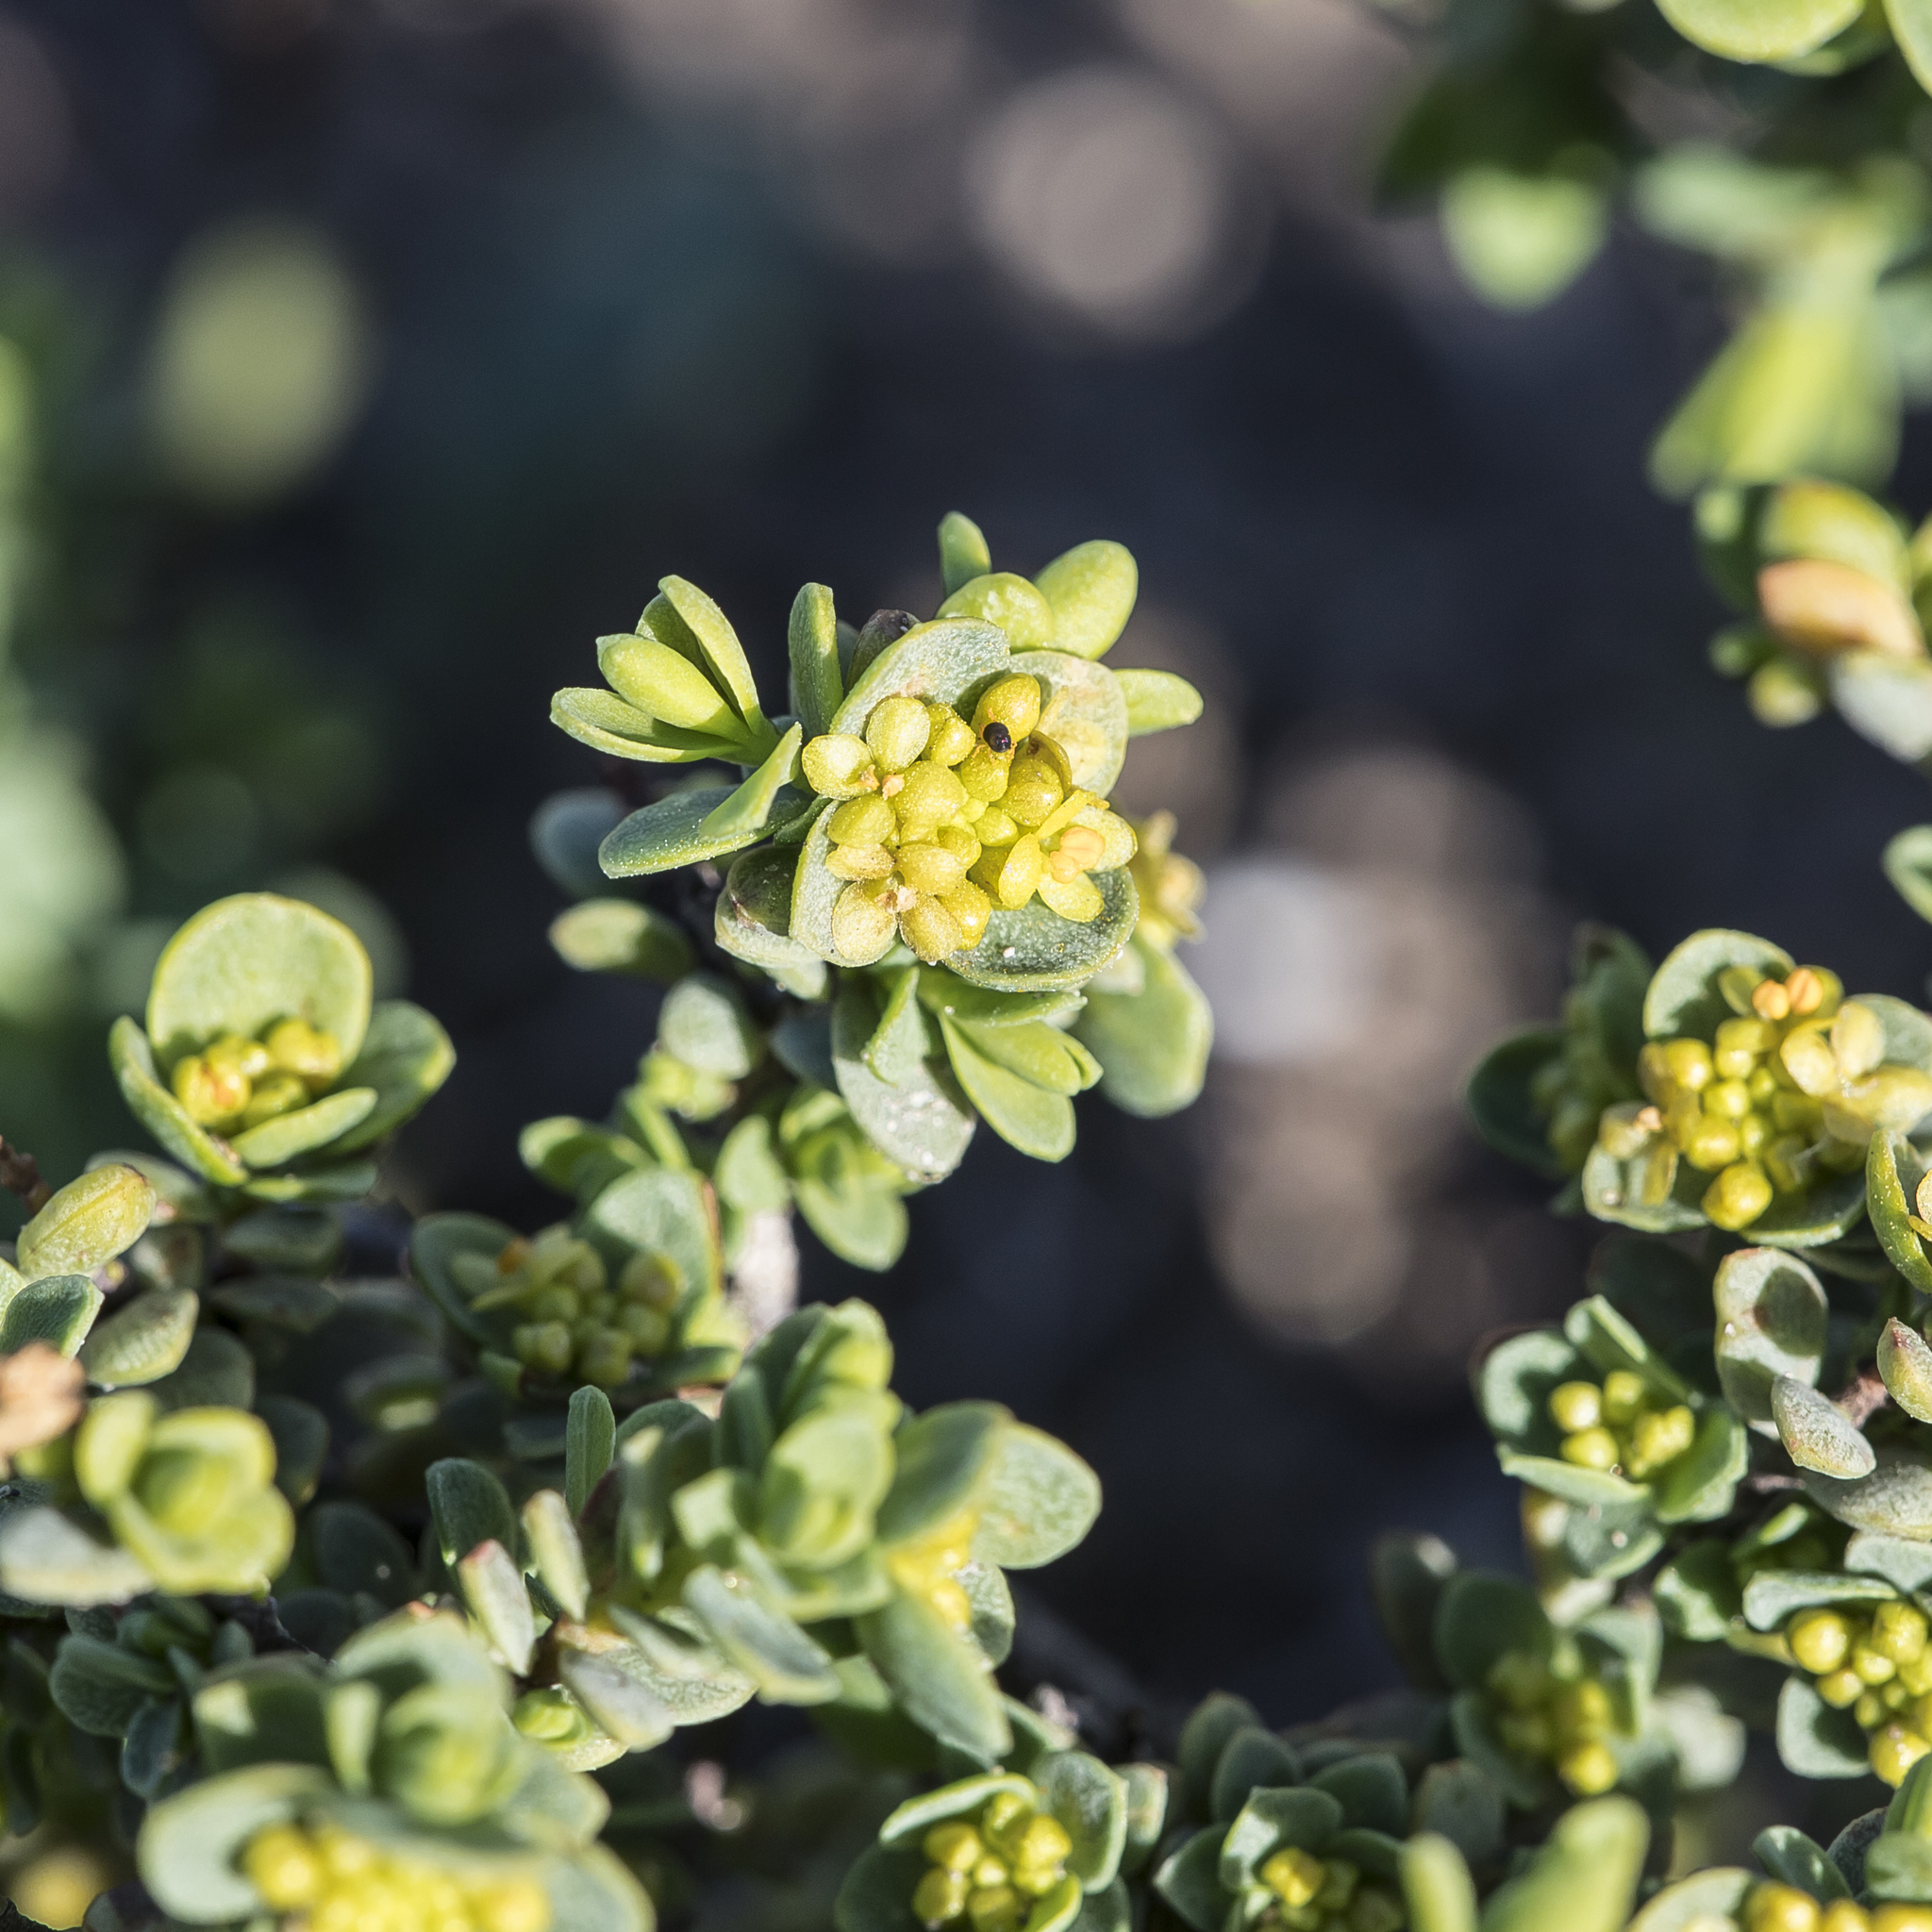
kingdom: Plantae
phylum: Tracheophyta
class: Magnoliopsida
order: Malvales
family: Thymelaeaceae
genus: Pimelea
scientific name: Pimelea serpyllifolia
